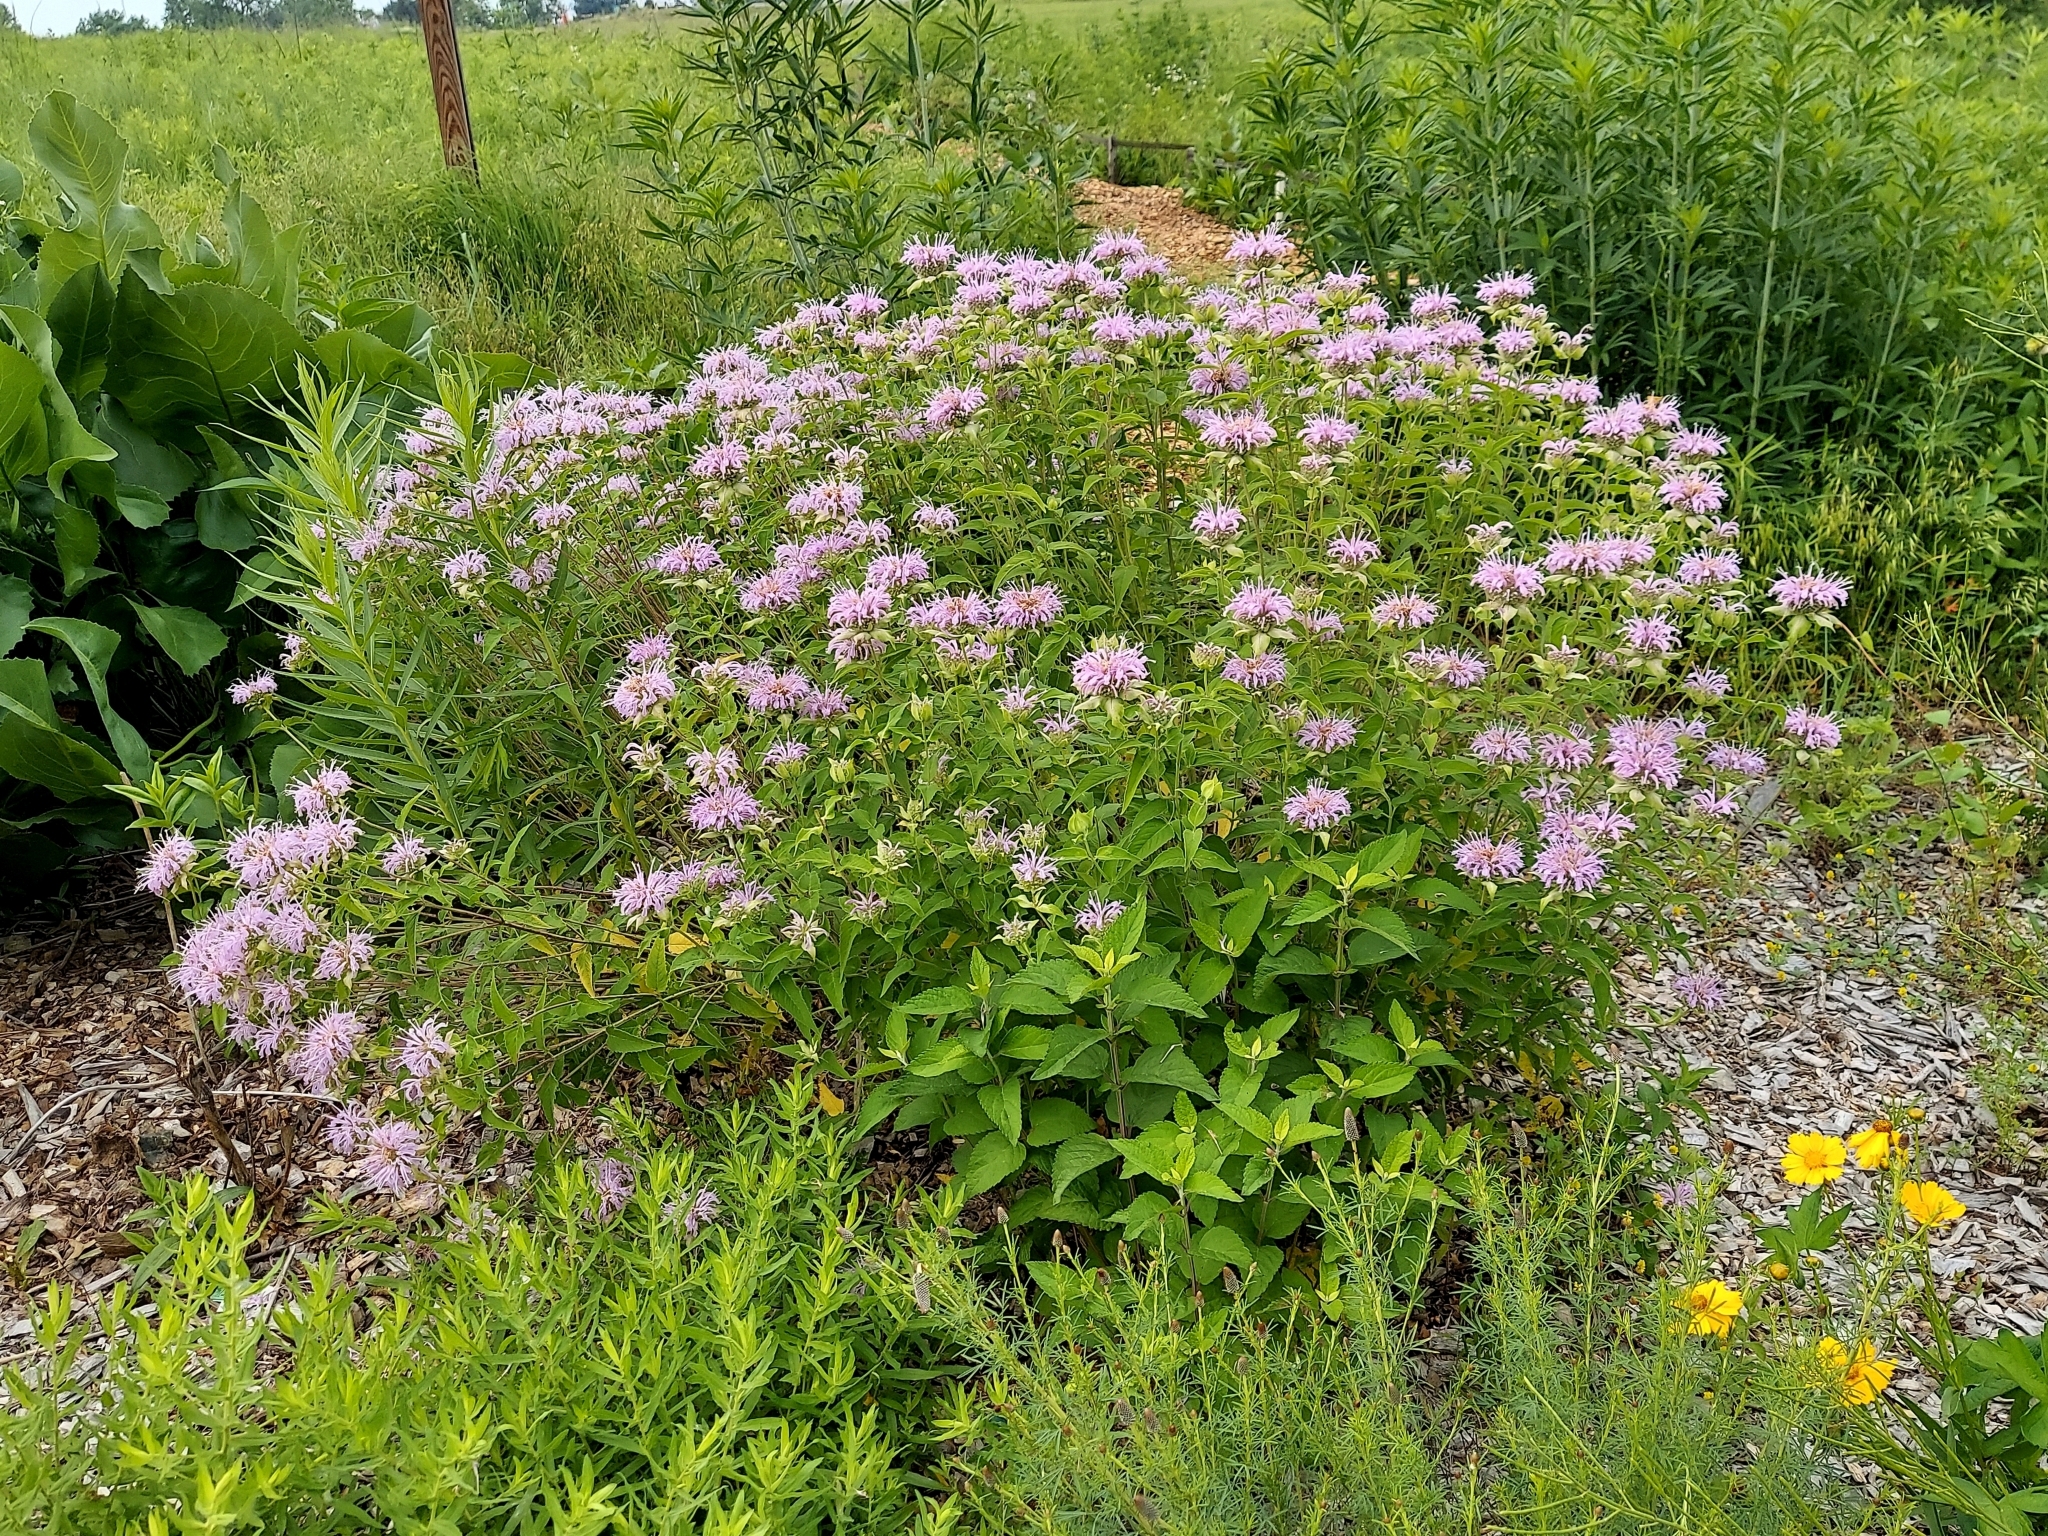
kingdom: Plantae
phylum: Tracheophyta
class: Magnoliopsida
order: Lamiales
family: Lamiaceae
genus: Monarda
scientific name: Monarda fistulosa
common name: Purple beebalm
